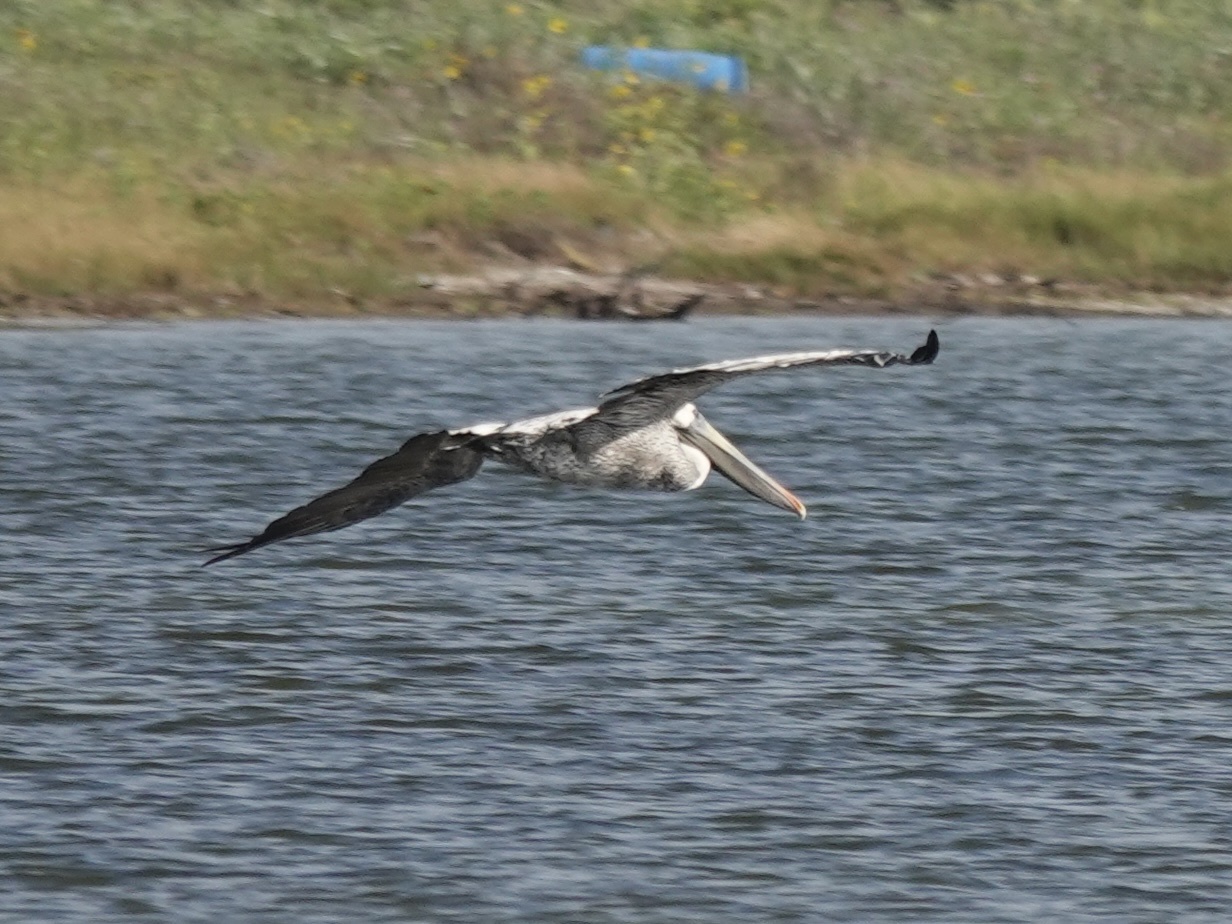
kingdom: Animalia
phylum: Chordata
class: Aves
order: Pelecaniformes
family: Pelecanidae
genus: Pelecanus
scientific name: Pelecanus occidentalis
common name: Brown pelican
